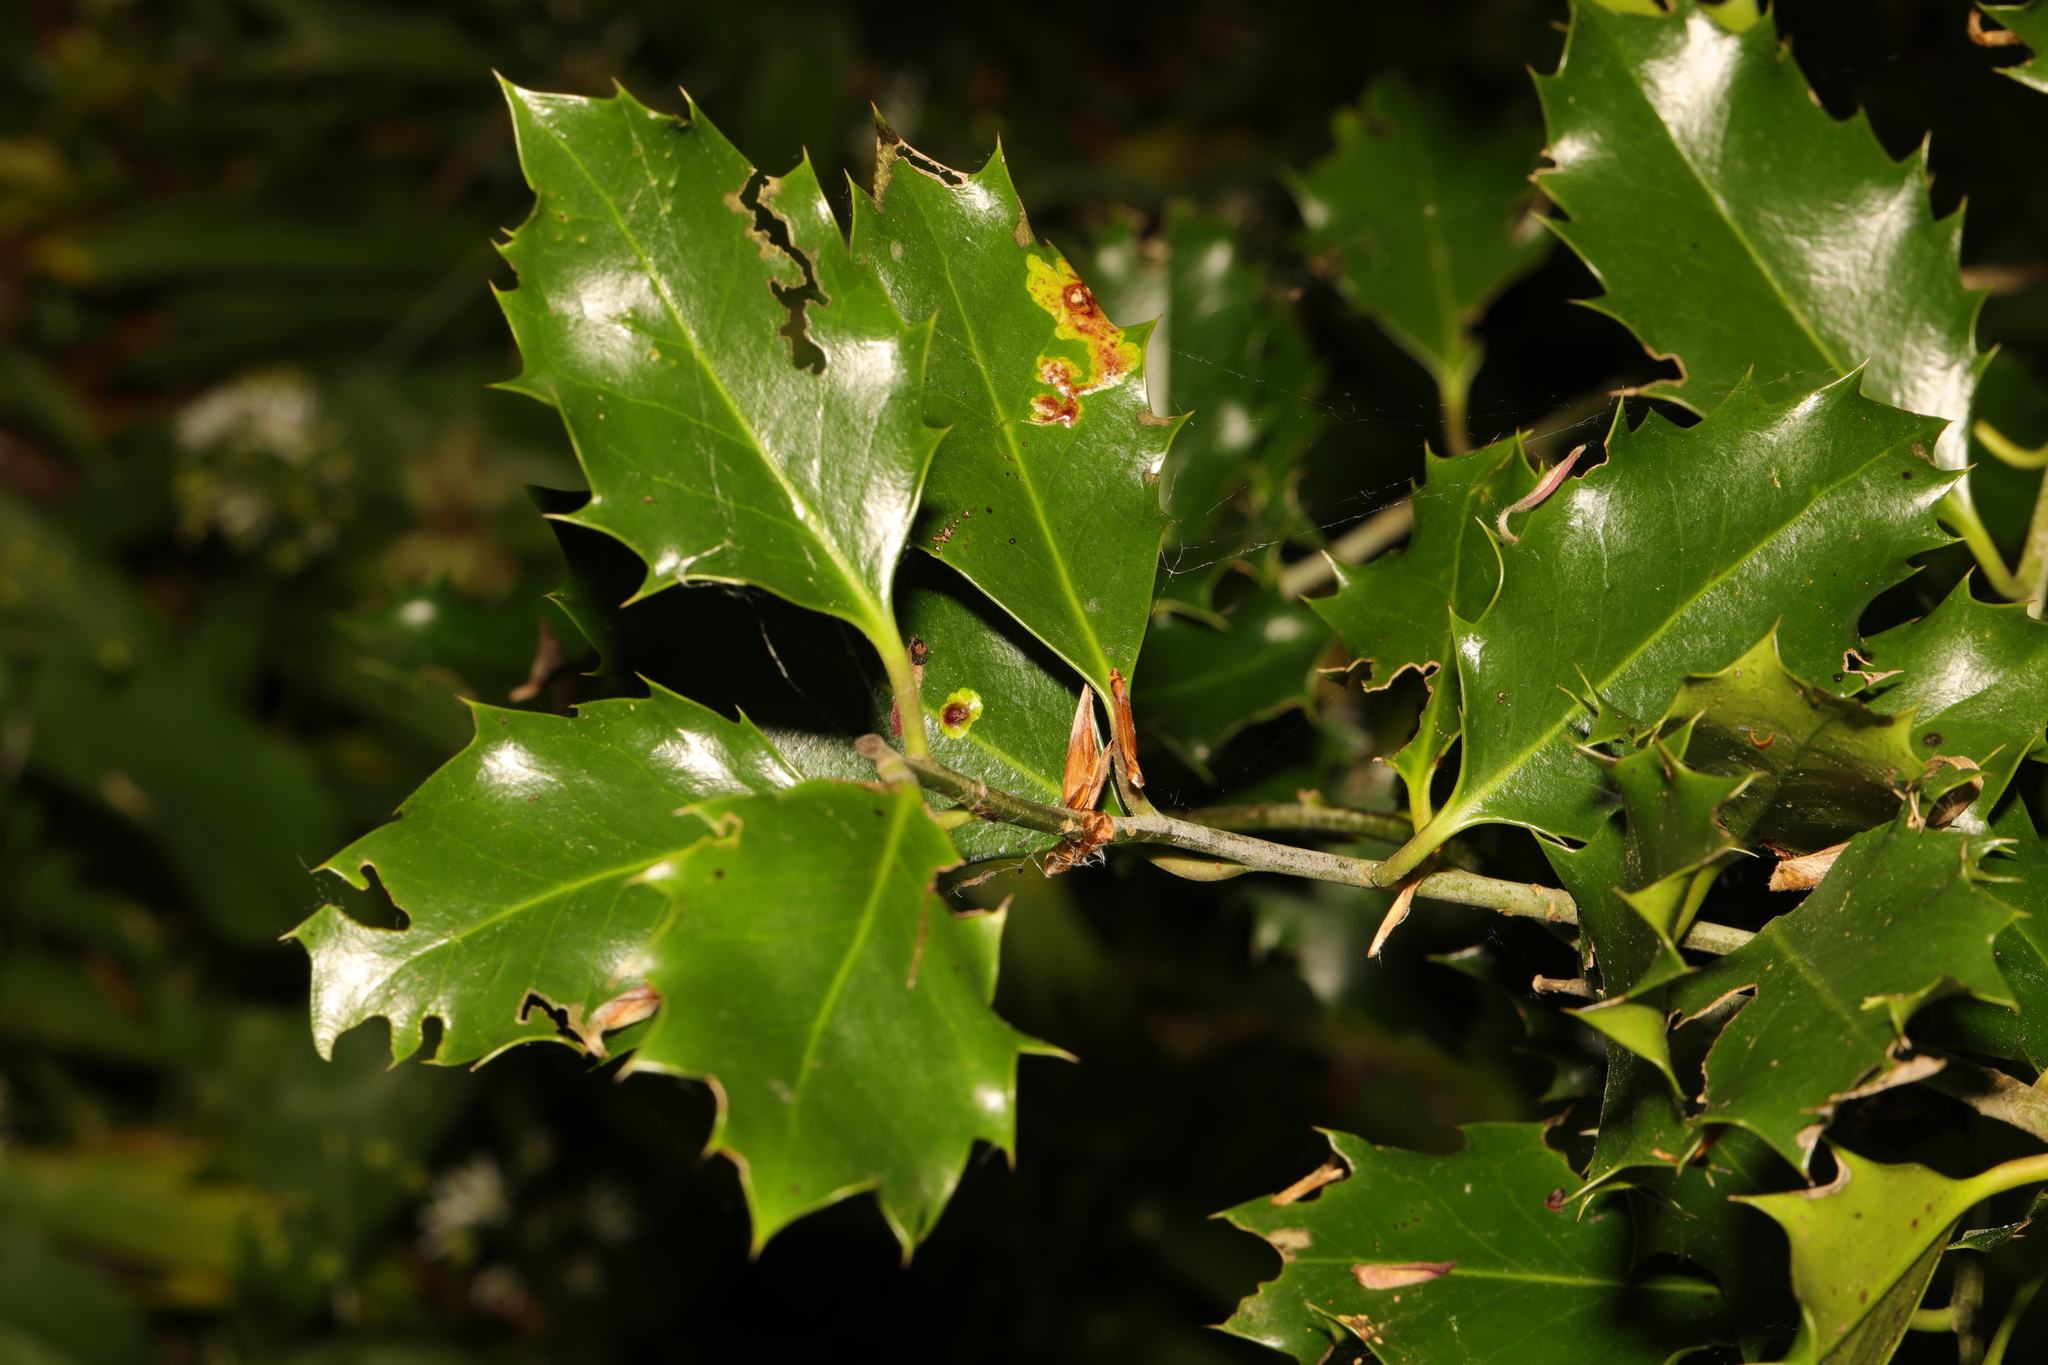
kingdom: Plantae
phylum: Tracheophyta
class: Magnoliopsida
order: Aquifoliales
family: Aquifoliaceae
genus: Ilex
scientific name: Ilex aquifolium
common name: English holly
